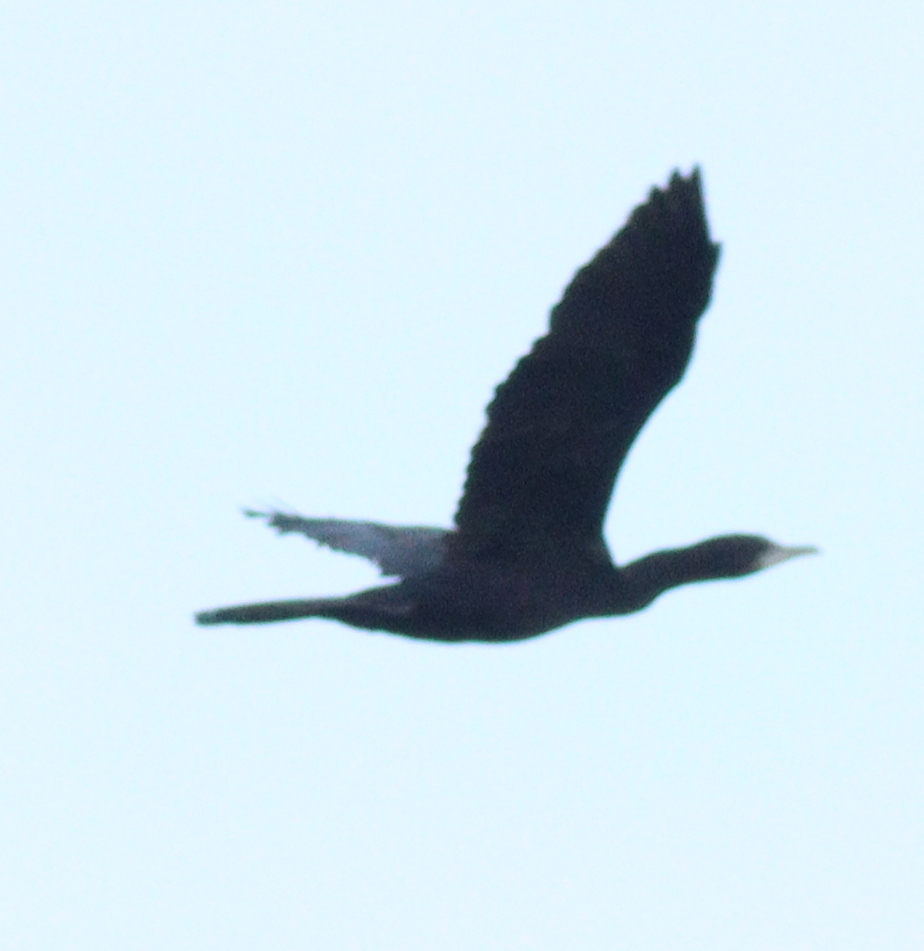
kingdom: Animalia
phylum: Chordata
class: Aves
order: Suliformes
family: Phalacrocoracidae
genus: Microcarbo
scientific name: Microcarbo niger
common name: Little cormorant
